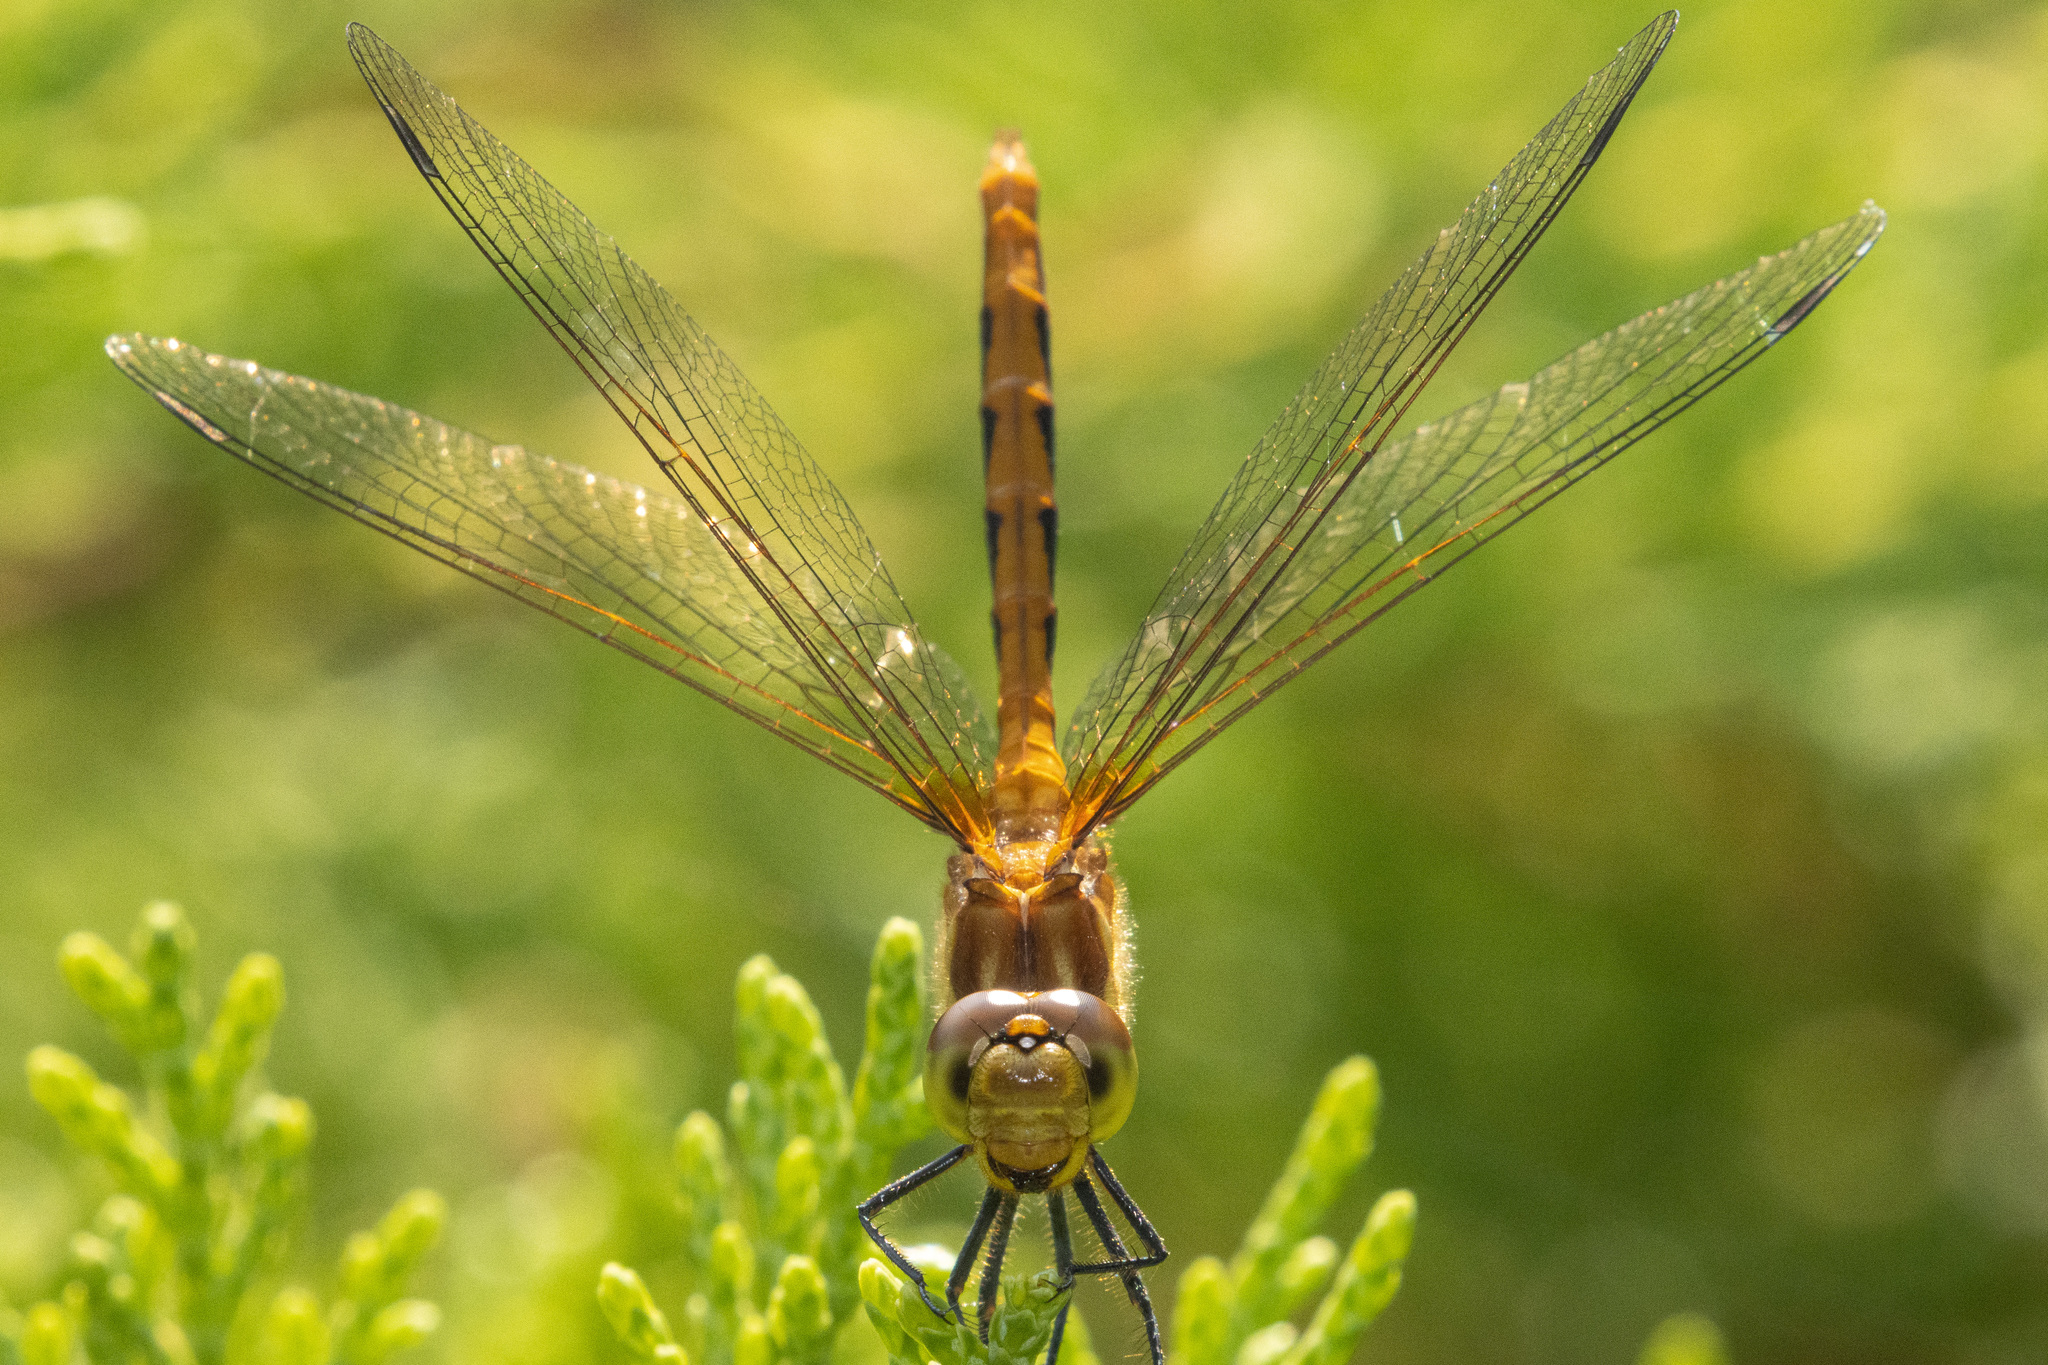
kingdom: Animalia
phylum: Arthropoda
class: Insecta
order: Odonata
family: Libellulidae
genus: Sympetrum
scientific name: Sympetrum pallipes
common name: Striped meadowhawk
